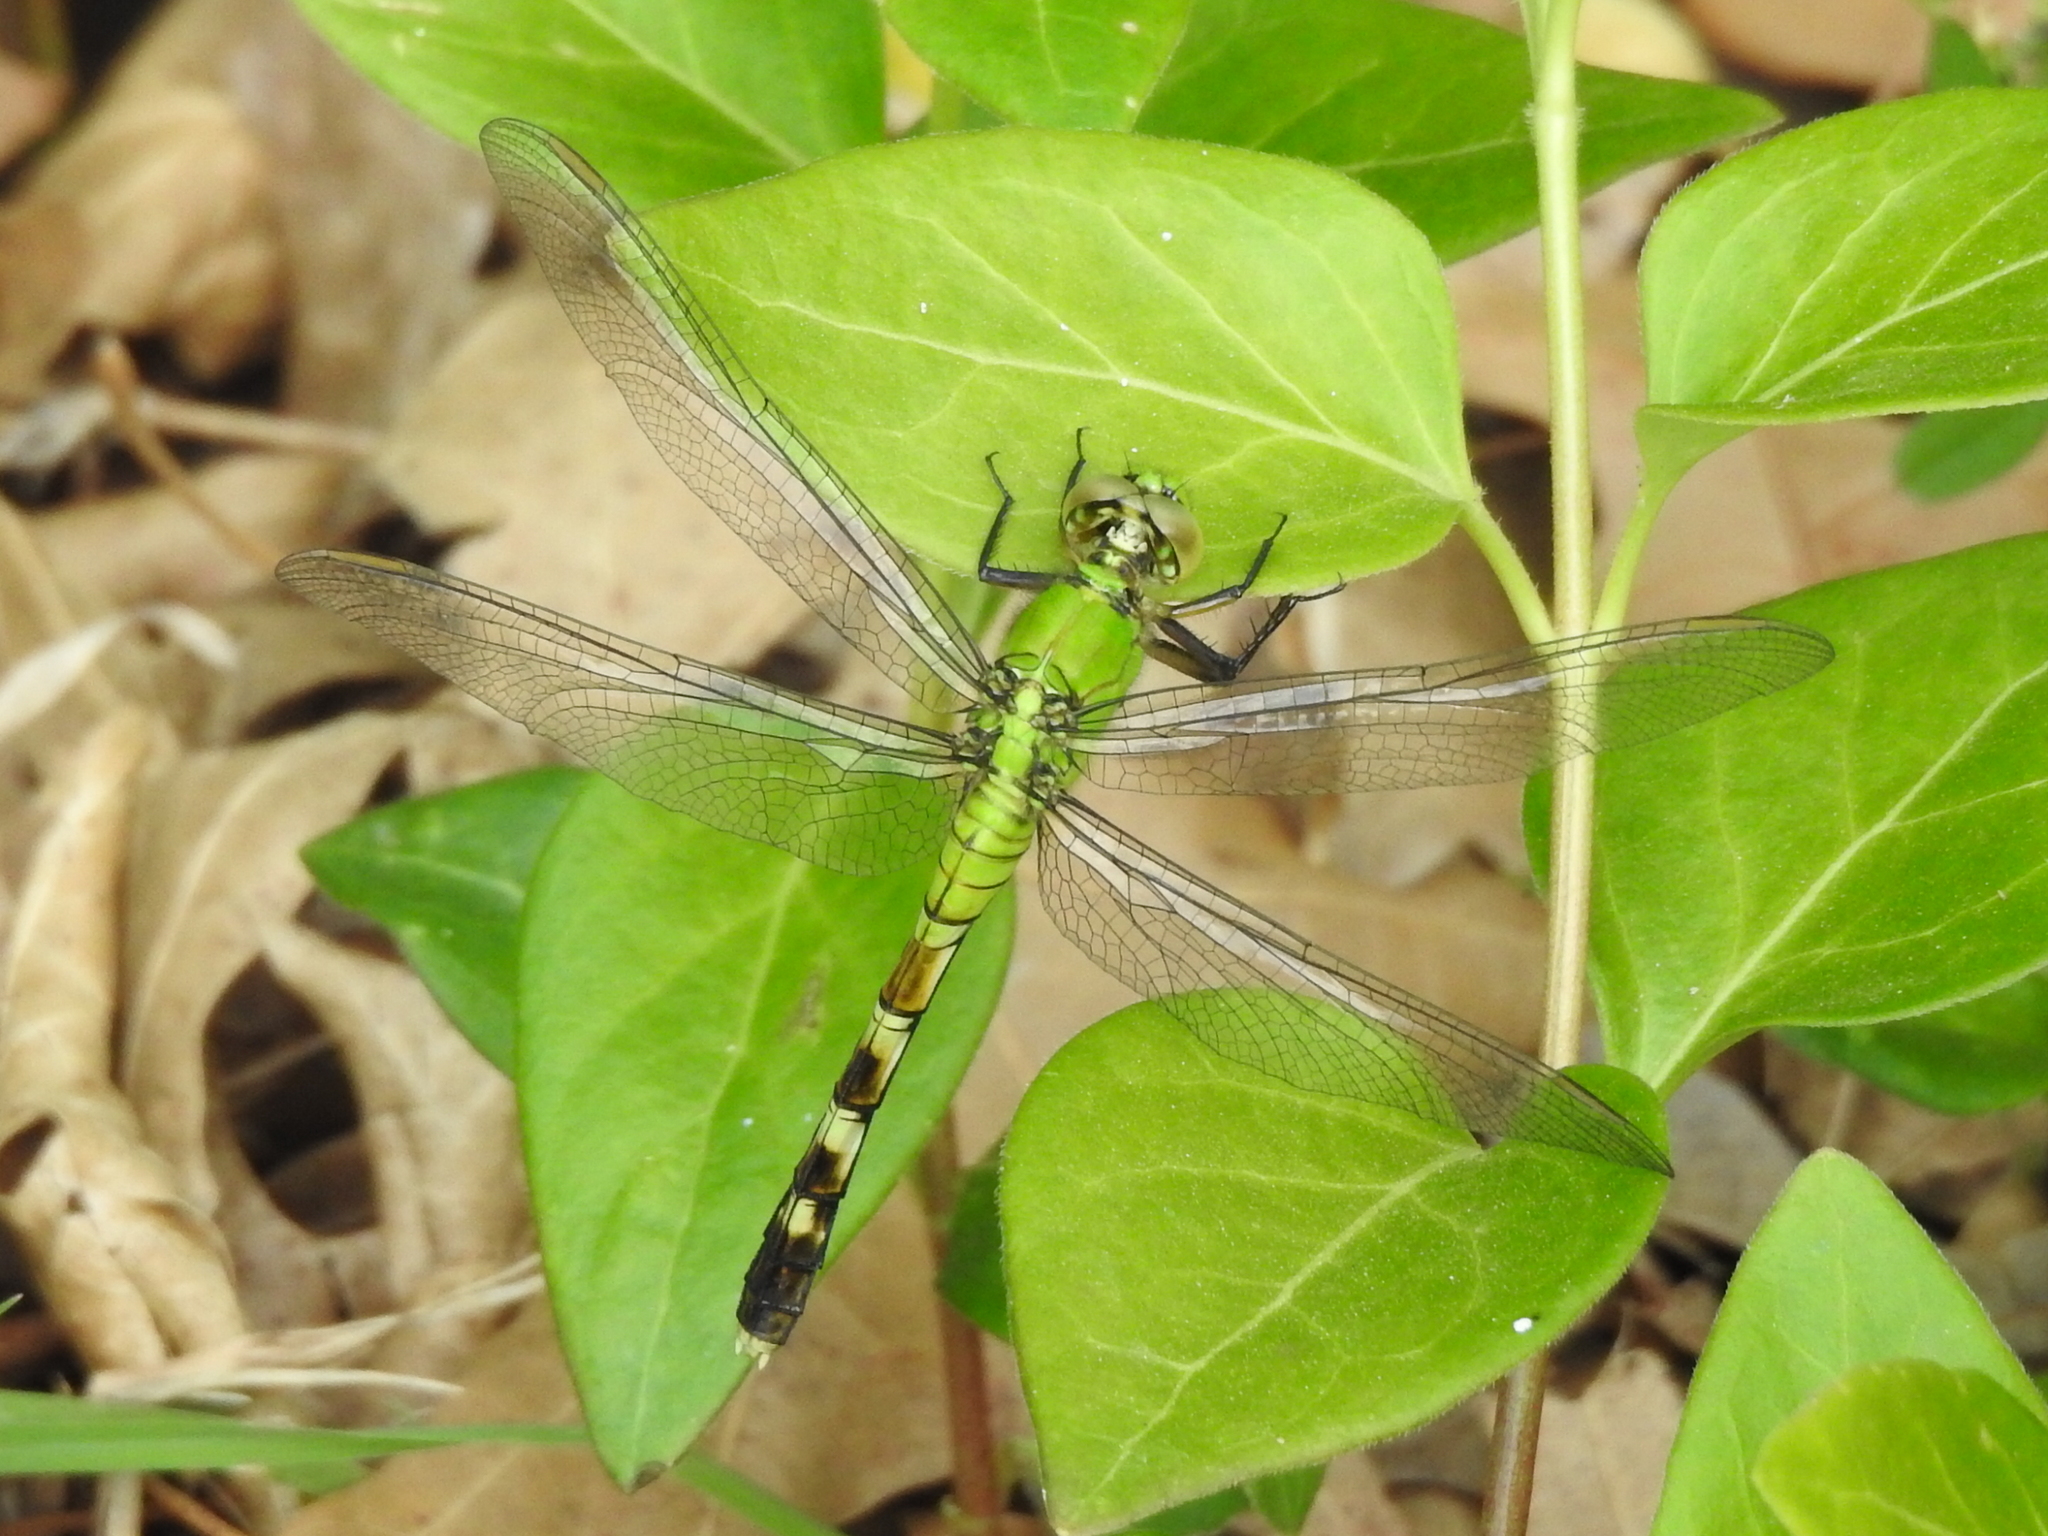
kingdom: Animalia
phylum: Arthropoda
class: Insecta
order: Odonata
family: Libellulidae
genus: Erythemis
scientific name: Erythemis simplicicollis
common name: Eastern pondhawk
